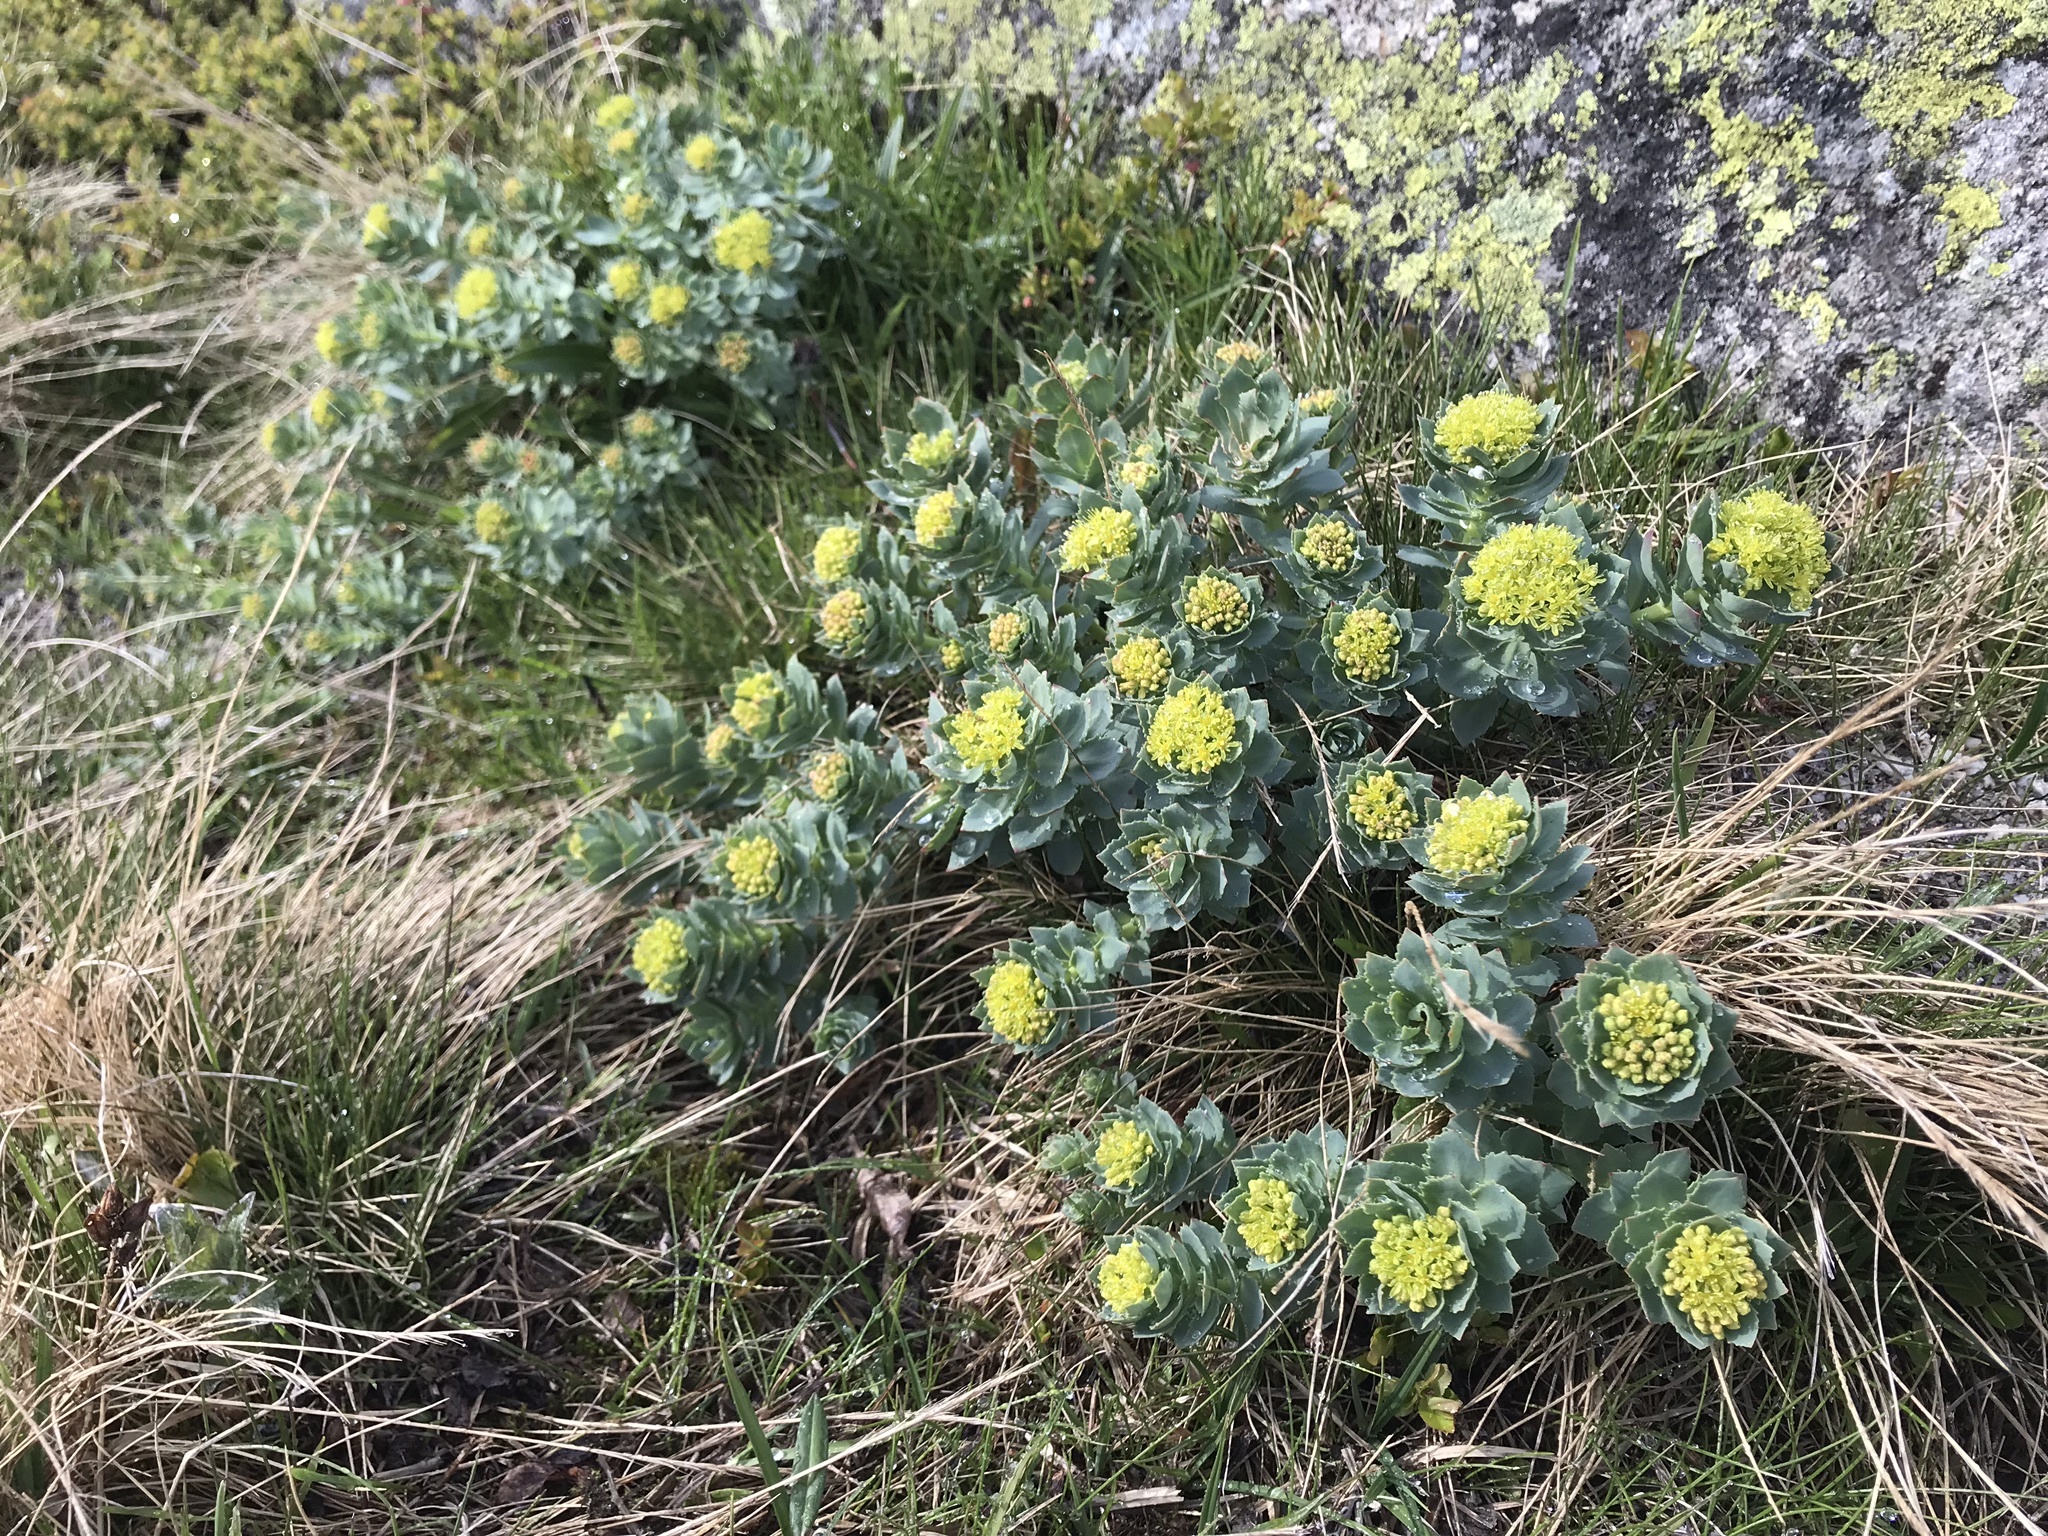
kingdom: Plantae
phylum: Tracheophyta
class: Magnoliopsida
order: Saxifragales
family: Crassulaceae
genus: Rhodiola
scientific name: Rhodiola rosea
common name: Roseroot
